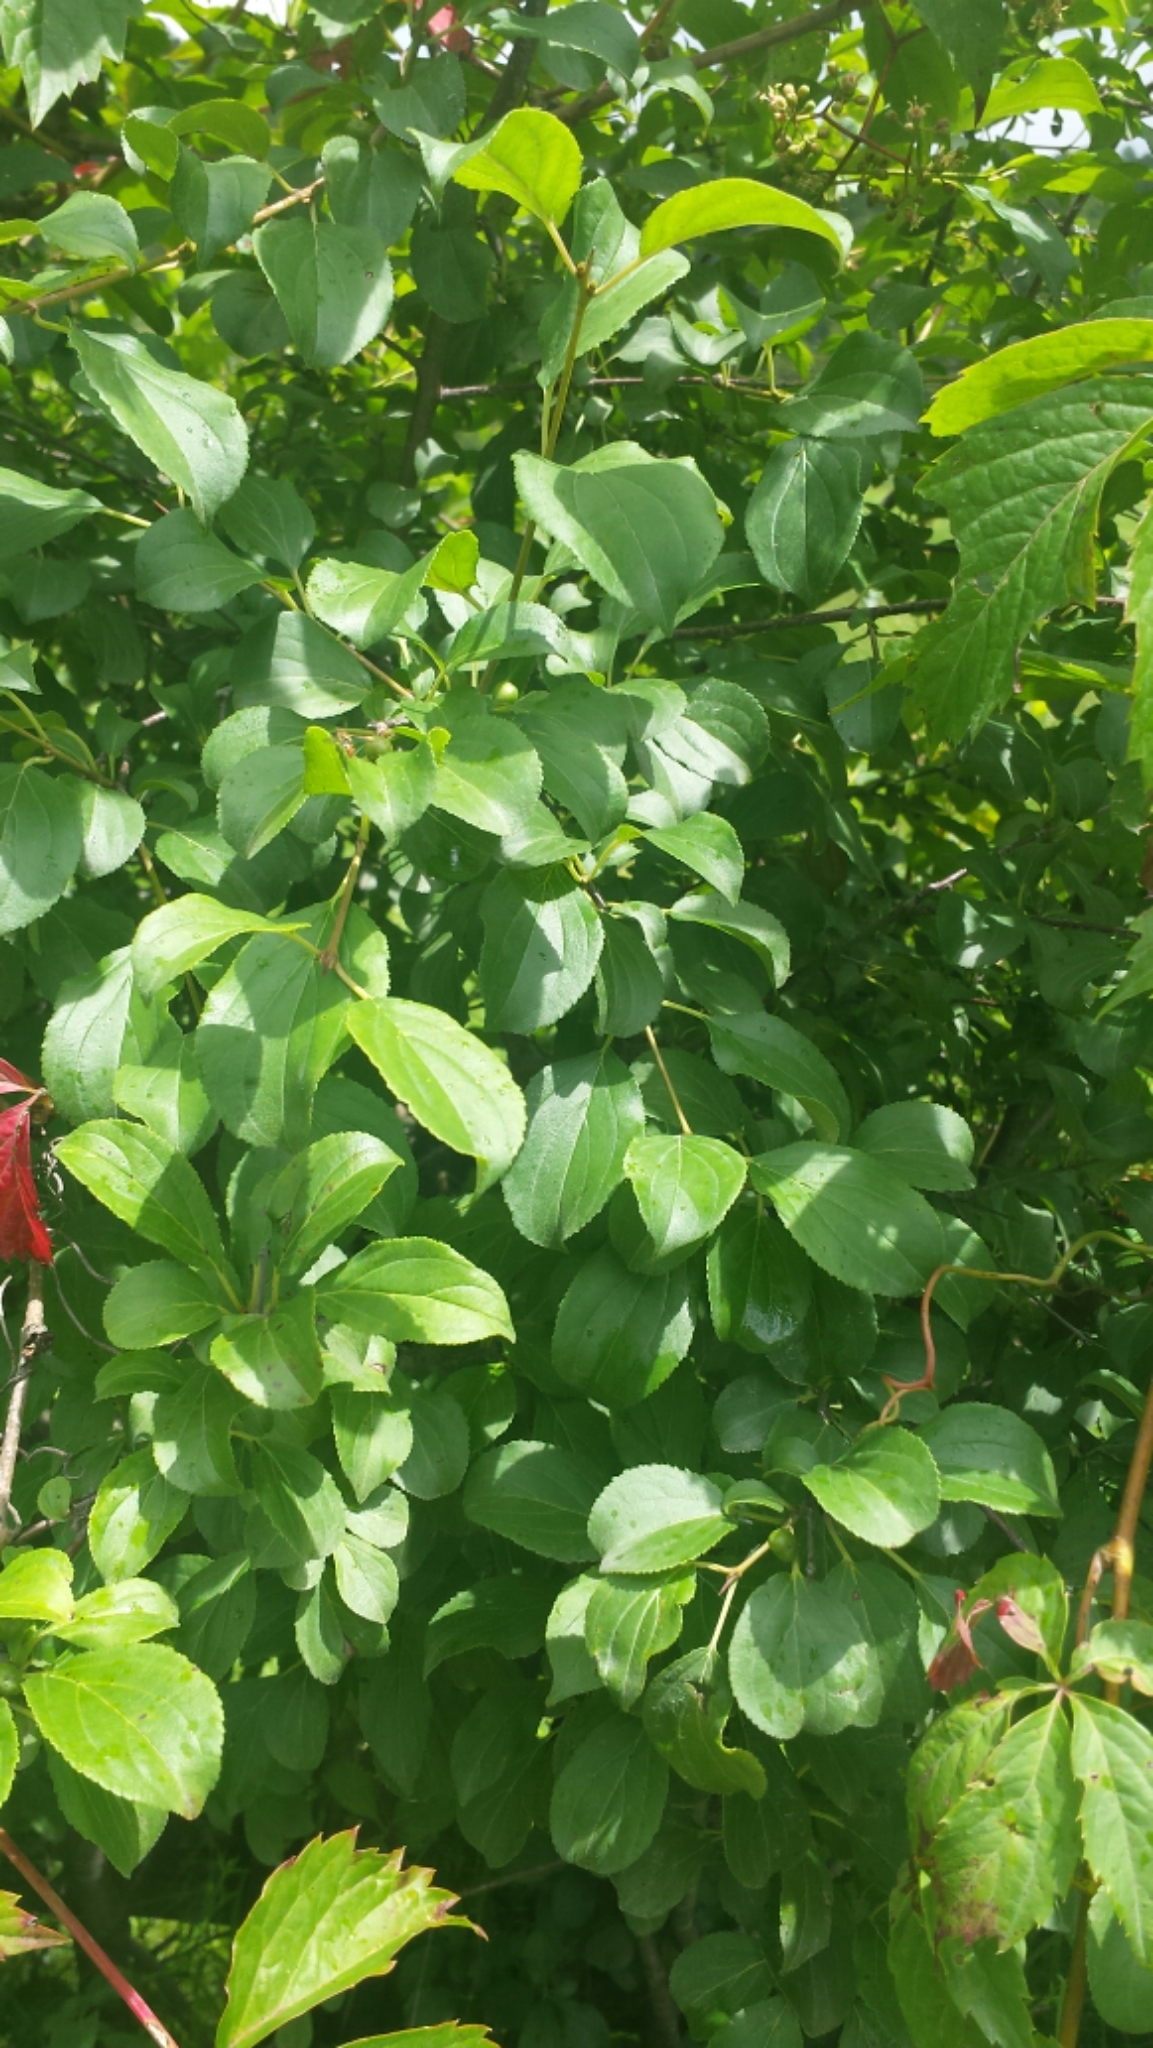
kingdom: Plantae
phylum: Tracheophyta
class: Magnoliopsida
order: Rosales
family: Rhamnaceae
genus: Rhamnus
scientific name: Rhamnus cathartica
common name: Common buckthorn
